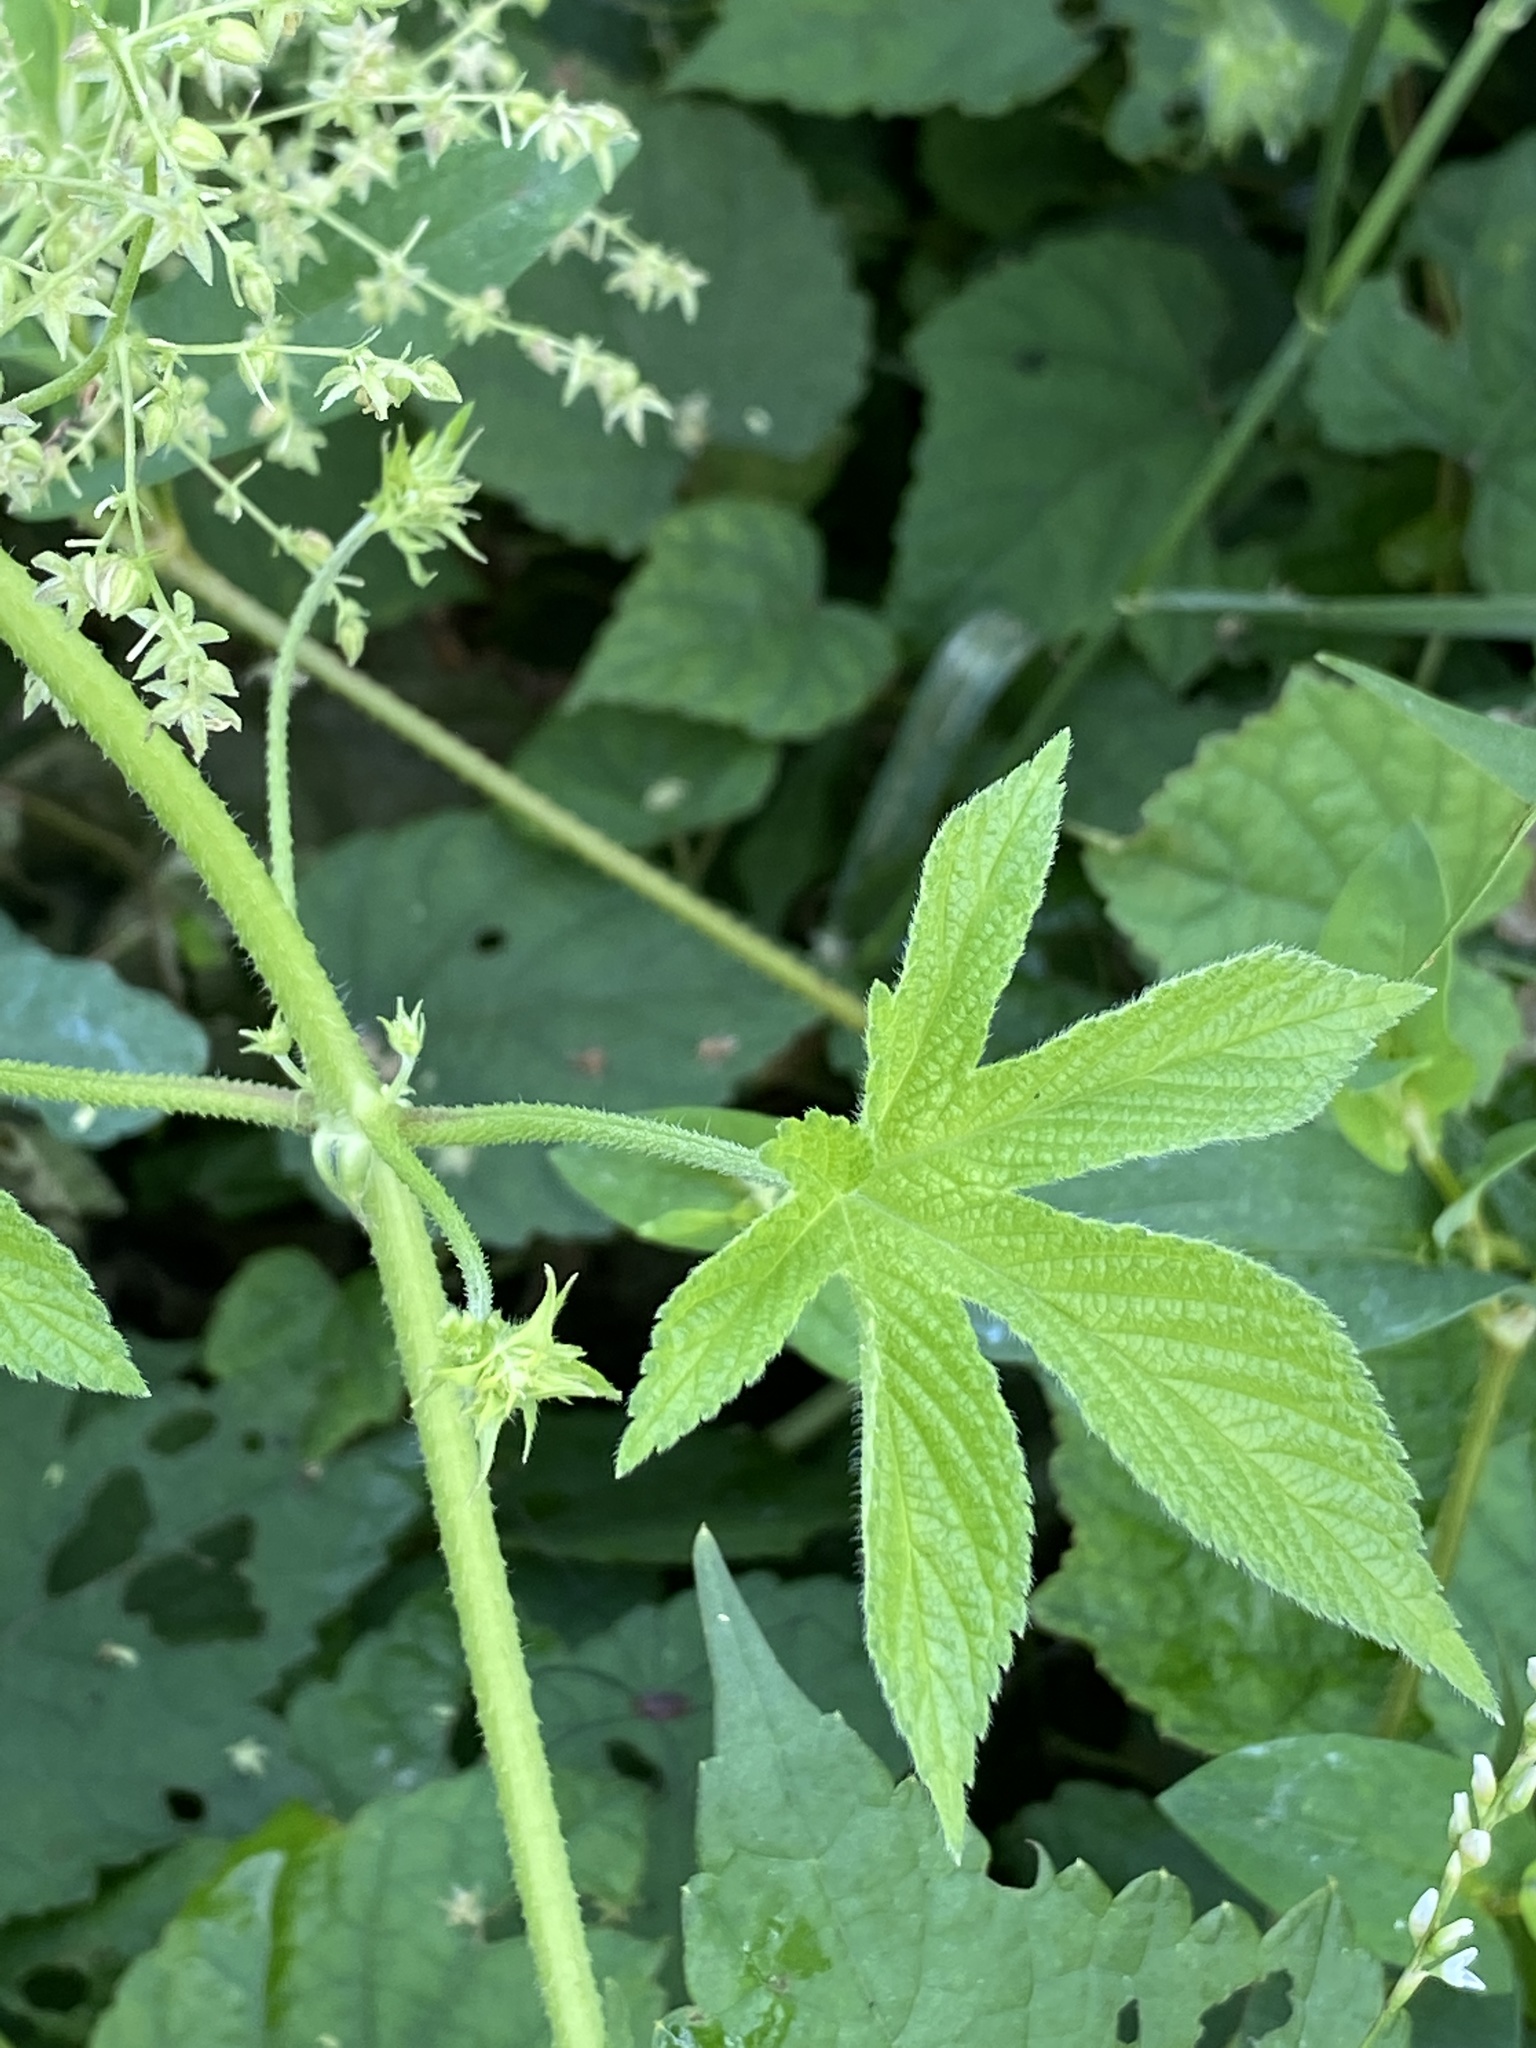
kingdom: Plantae
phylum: Tracheophyta
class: Magnoliopsida
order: Rosales
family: Cannabaceae
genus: Humulus
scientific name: Humulus scandens
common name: Japanese hop
